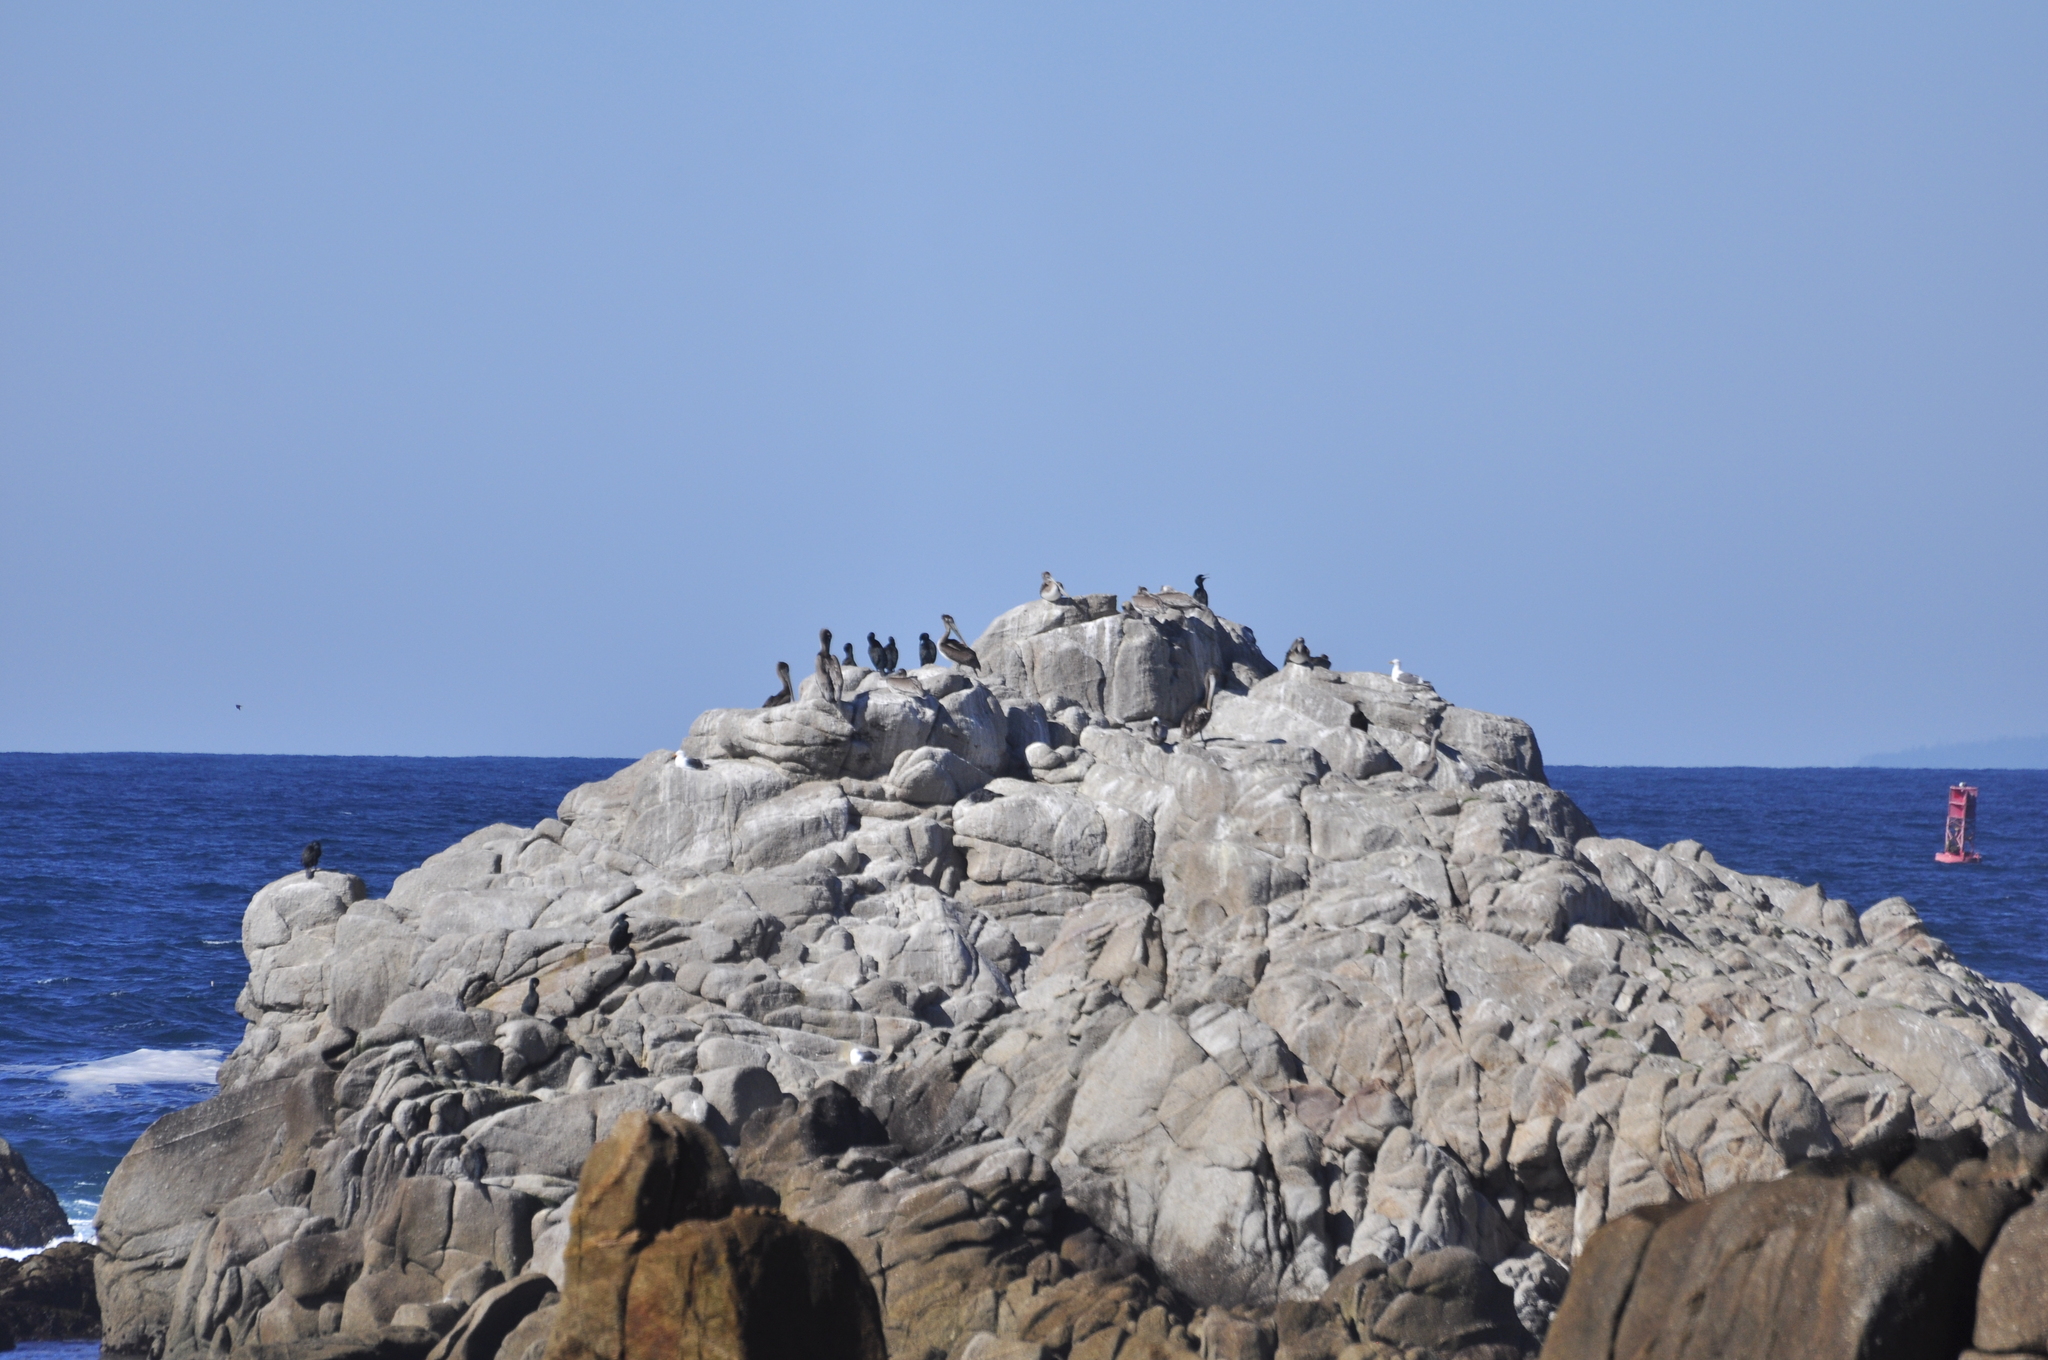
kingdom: Animalia
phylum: Chordata
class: Aves
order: Pelecaniformes
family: Pelecanidae
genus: Pelecanus
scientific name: Pelecanus occidentalis
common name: Brown pelican
